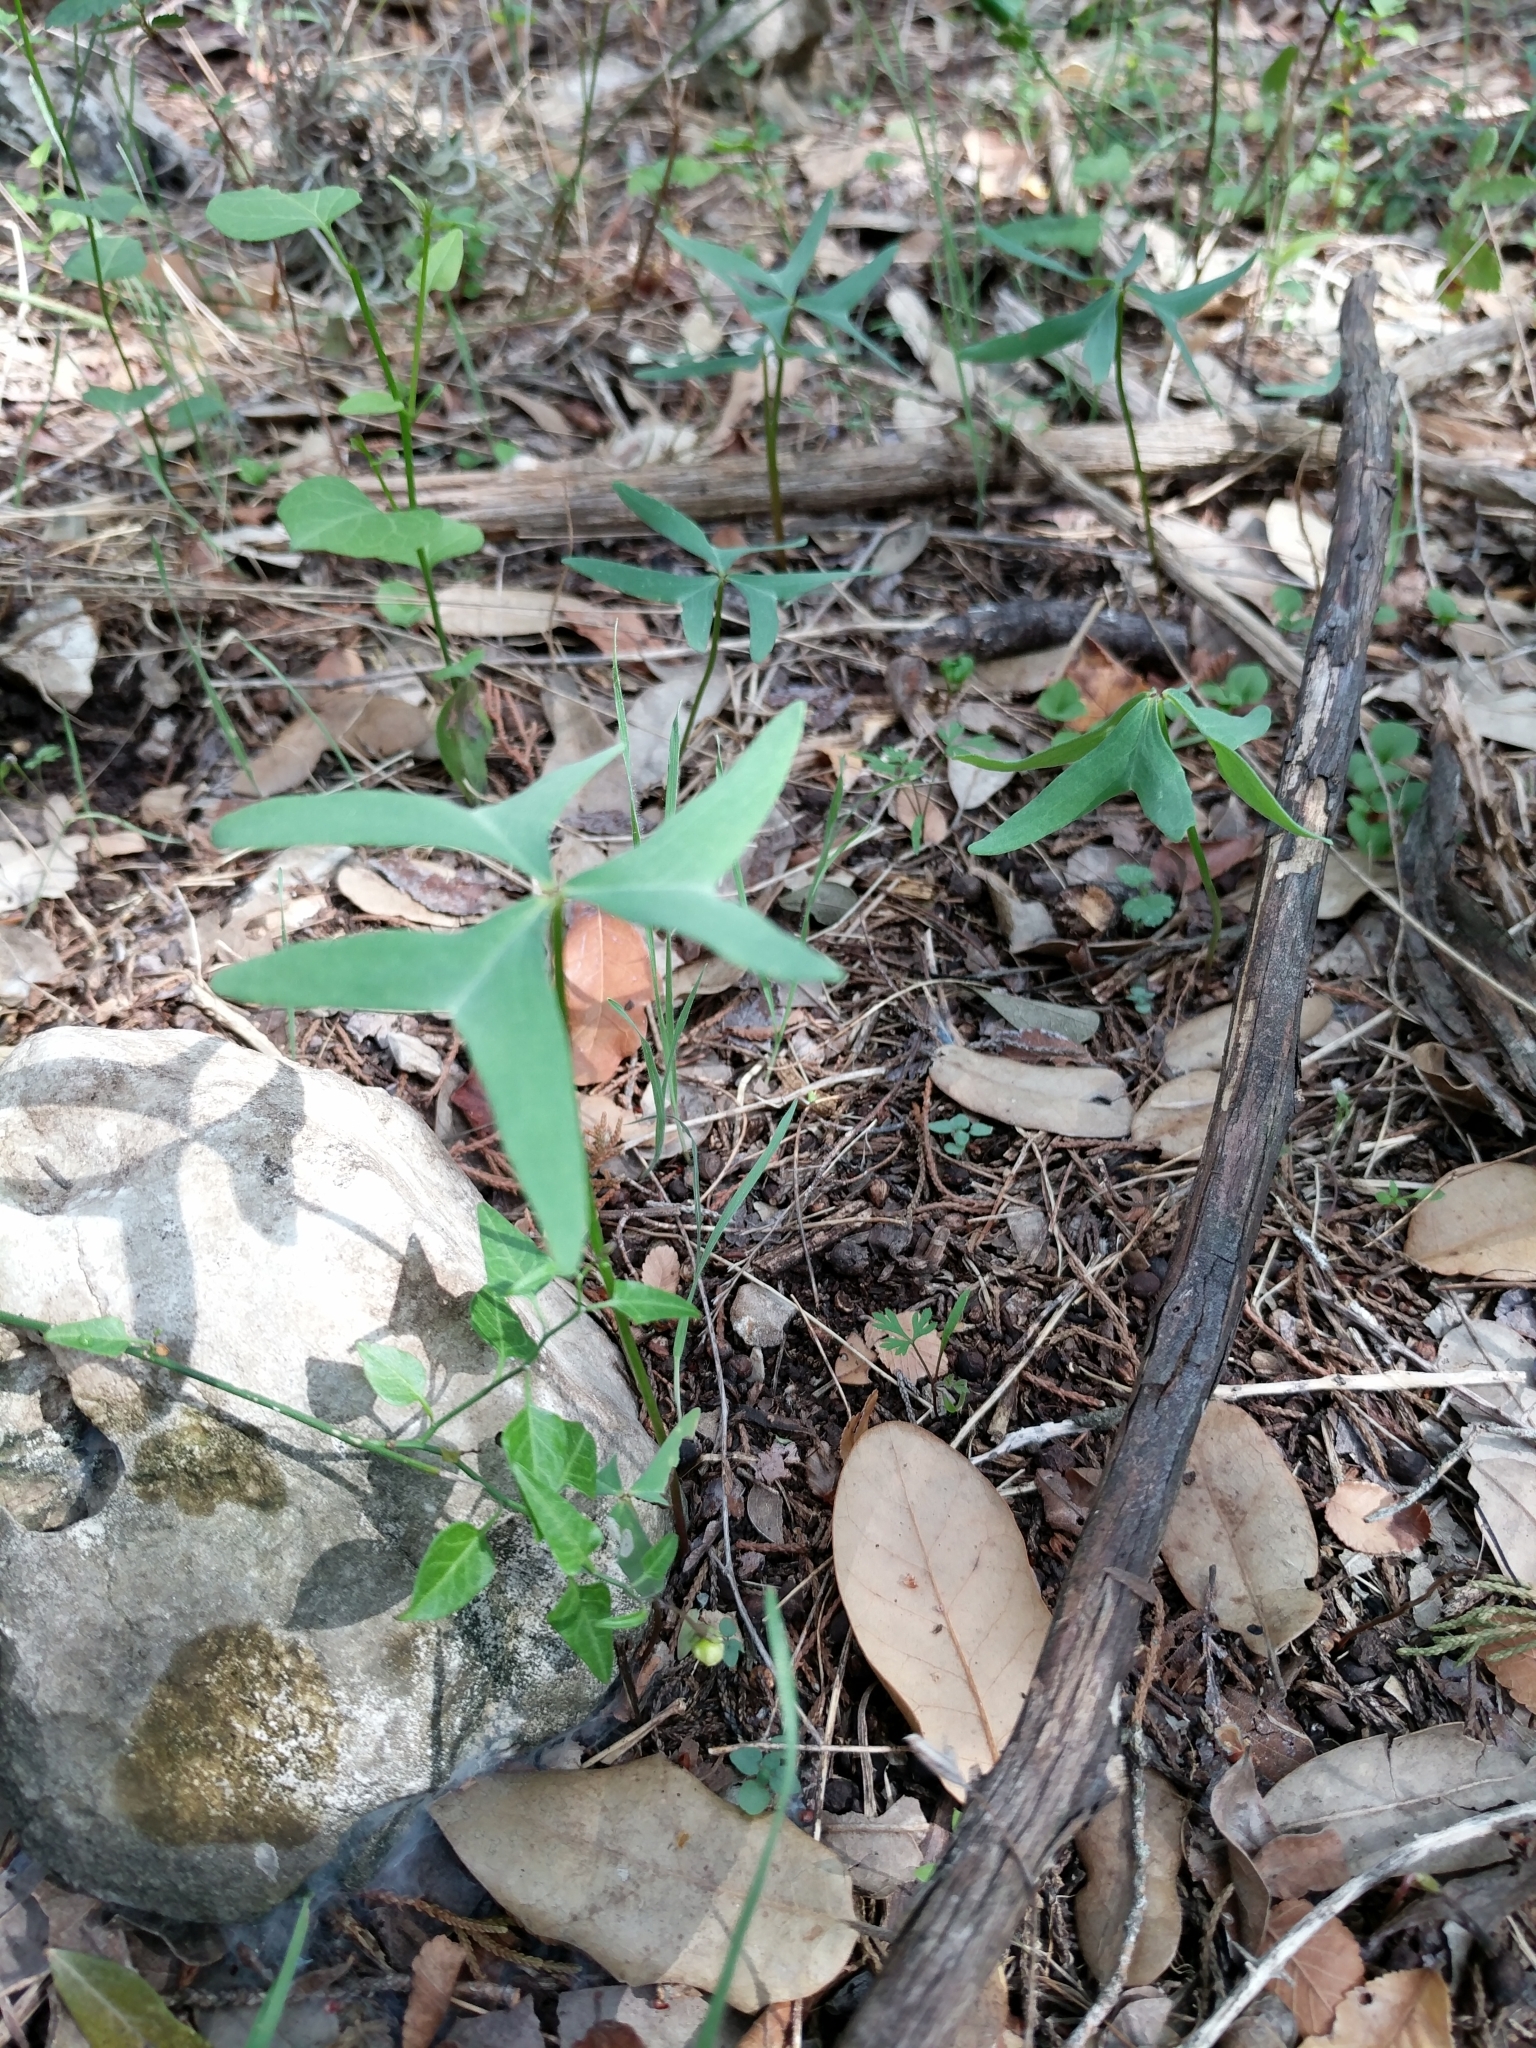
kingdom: Plantae
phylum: Tracheophyta
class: Magnoliopsida
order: Oxalidales
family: Oxalidaceae
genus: Oxalis
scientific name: Oxalis drummondii
